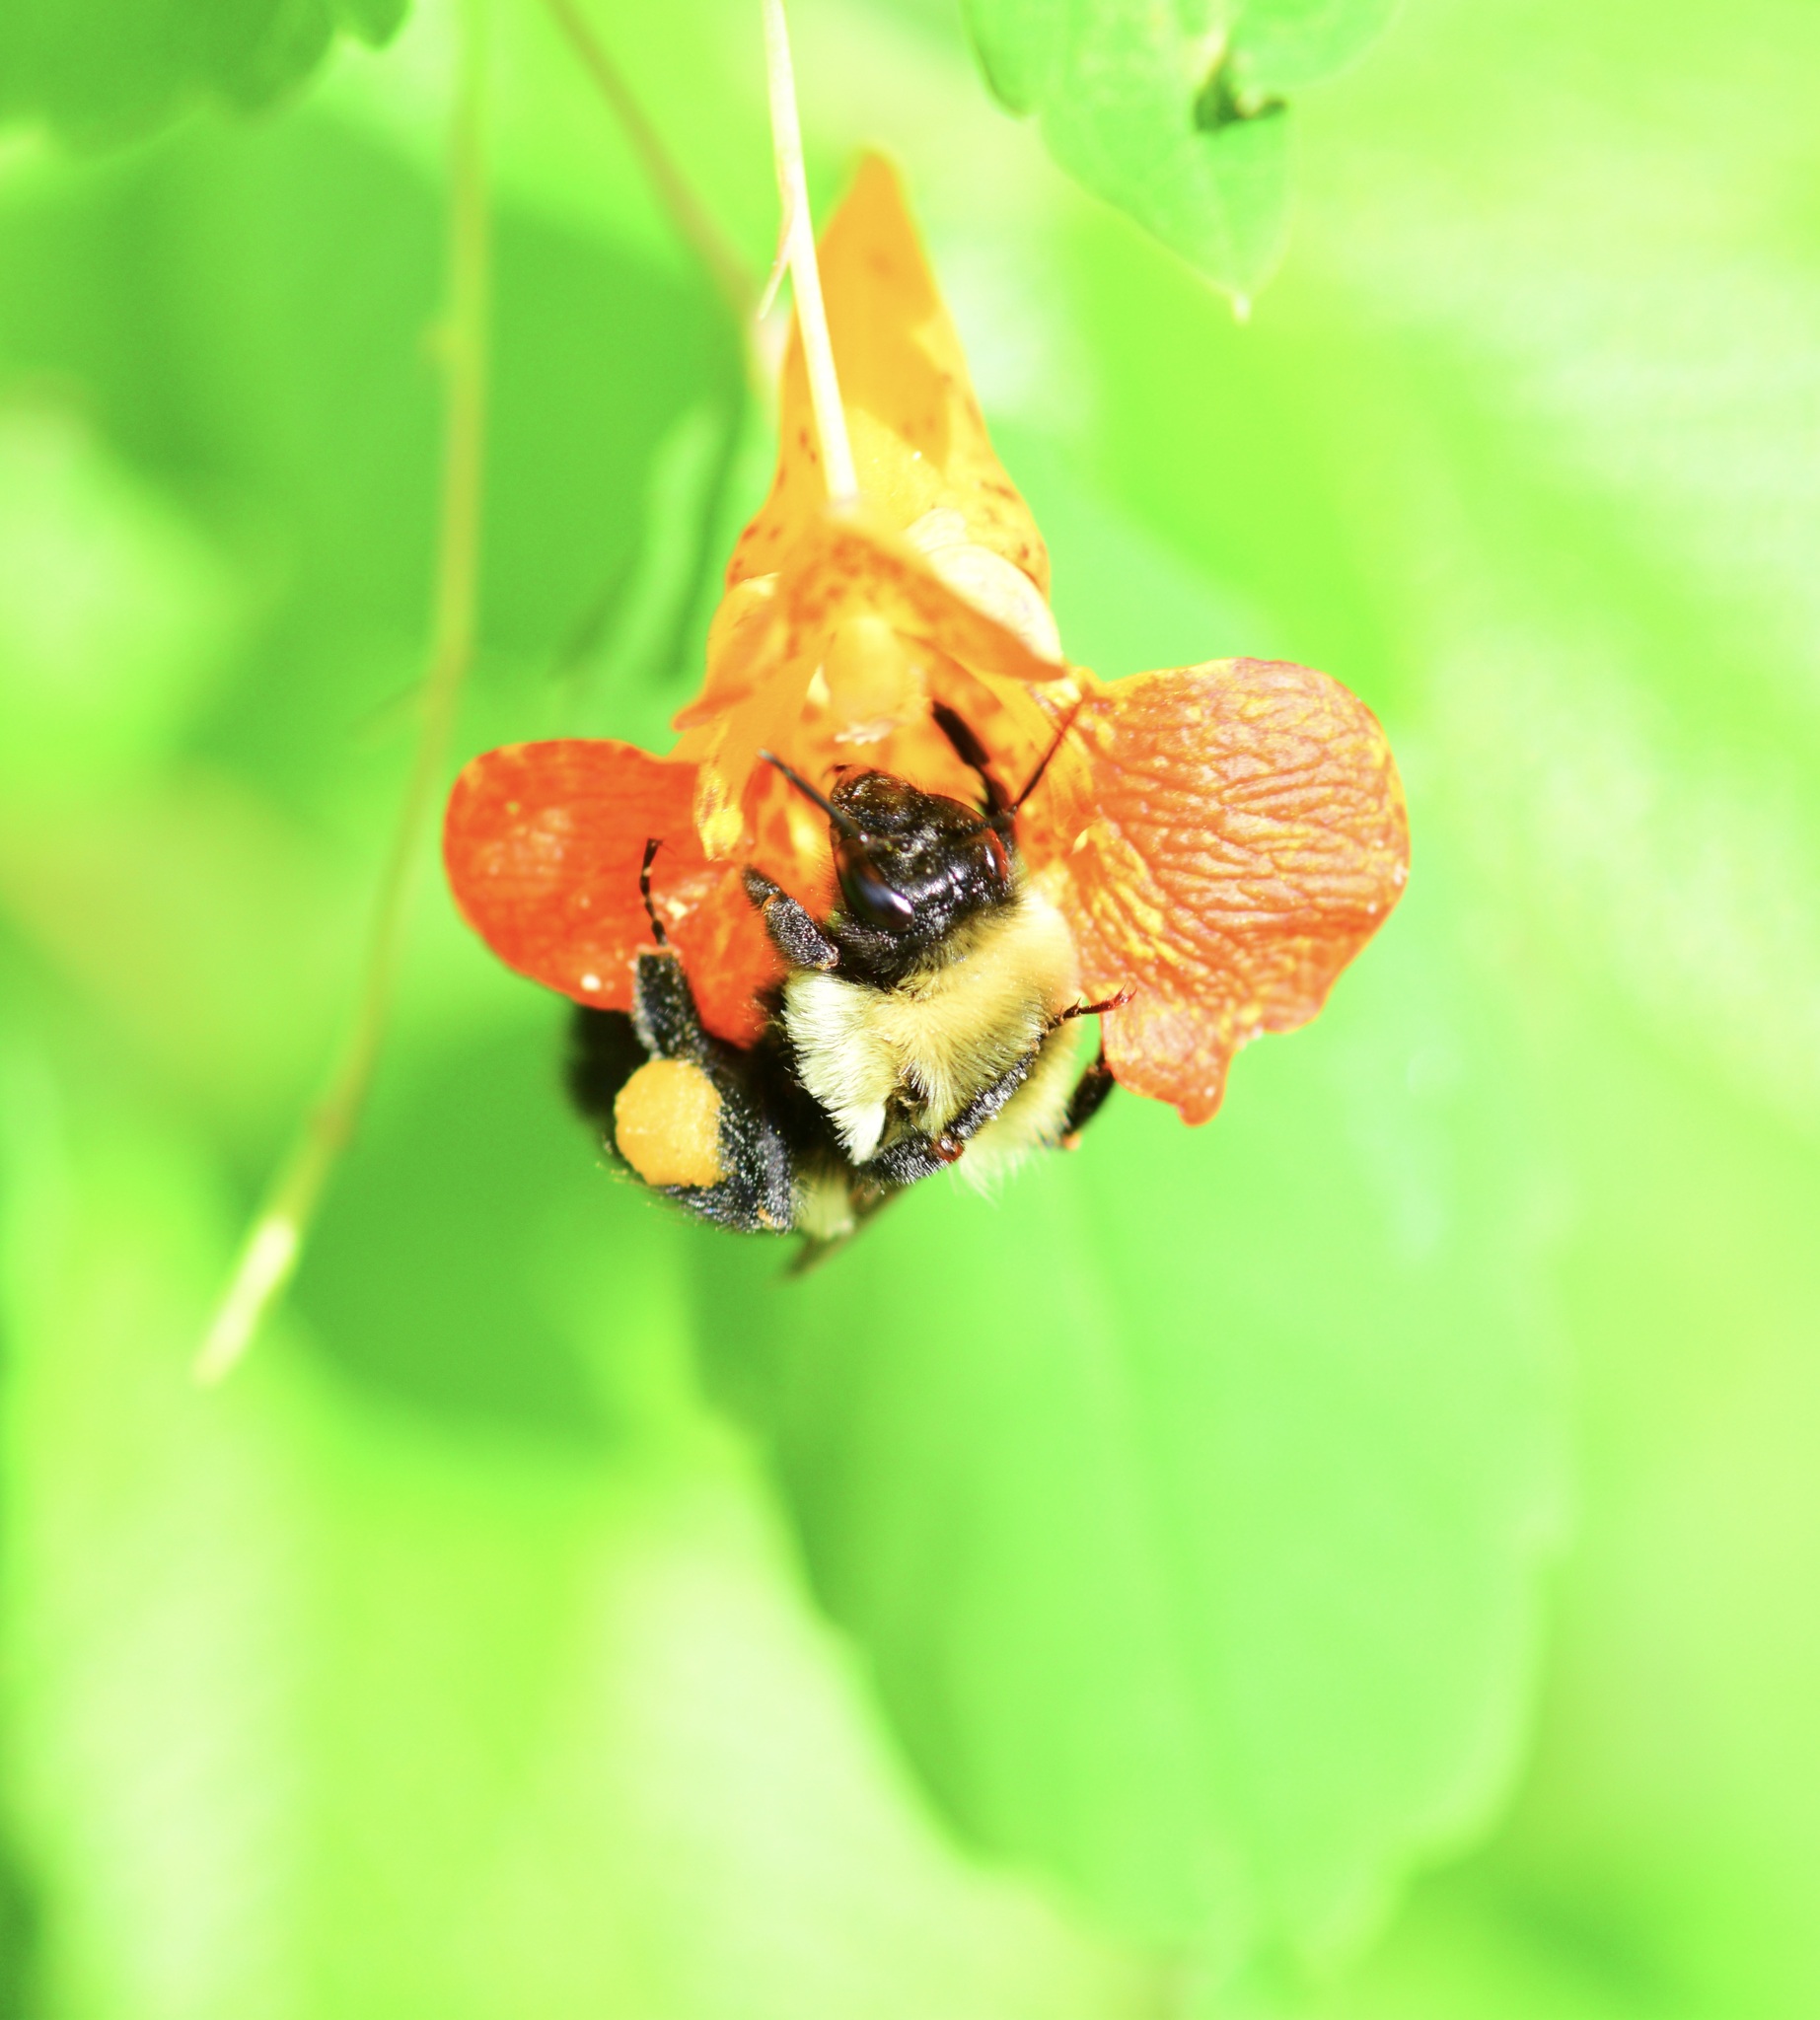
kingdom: Animalia
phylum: Arthropoda
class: Insecta
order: Hymenoptera
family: Apidae
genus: Bombus
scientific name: Bombus impatiens
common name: Common eastern bumble bee
